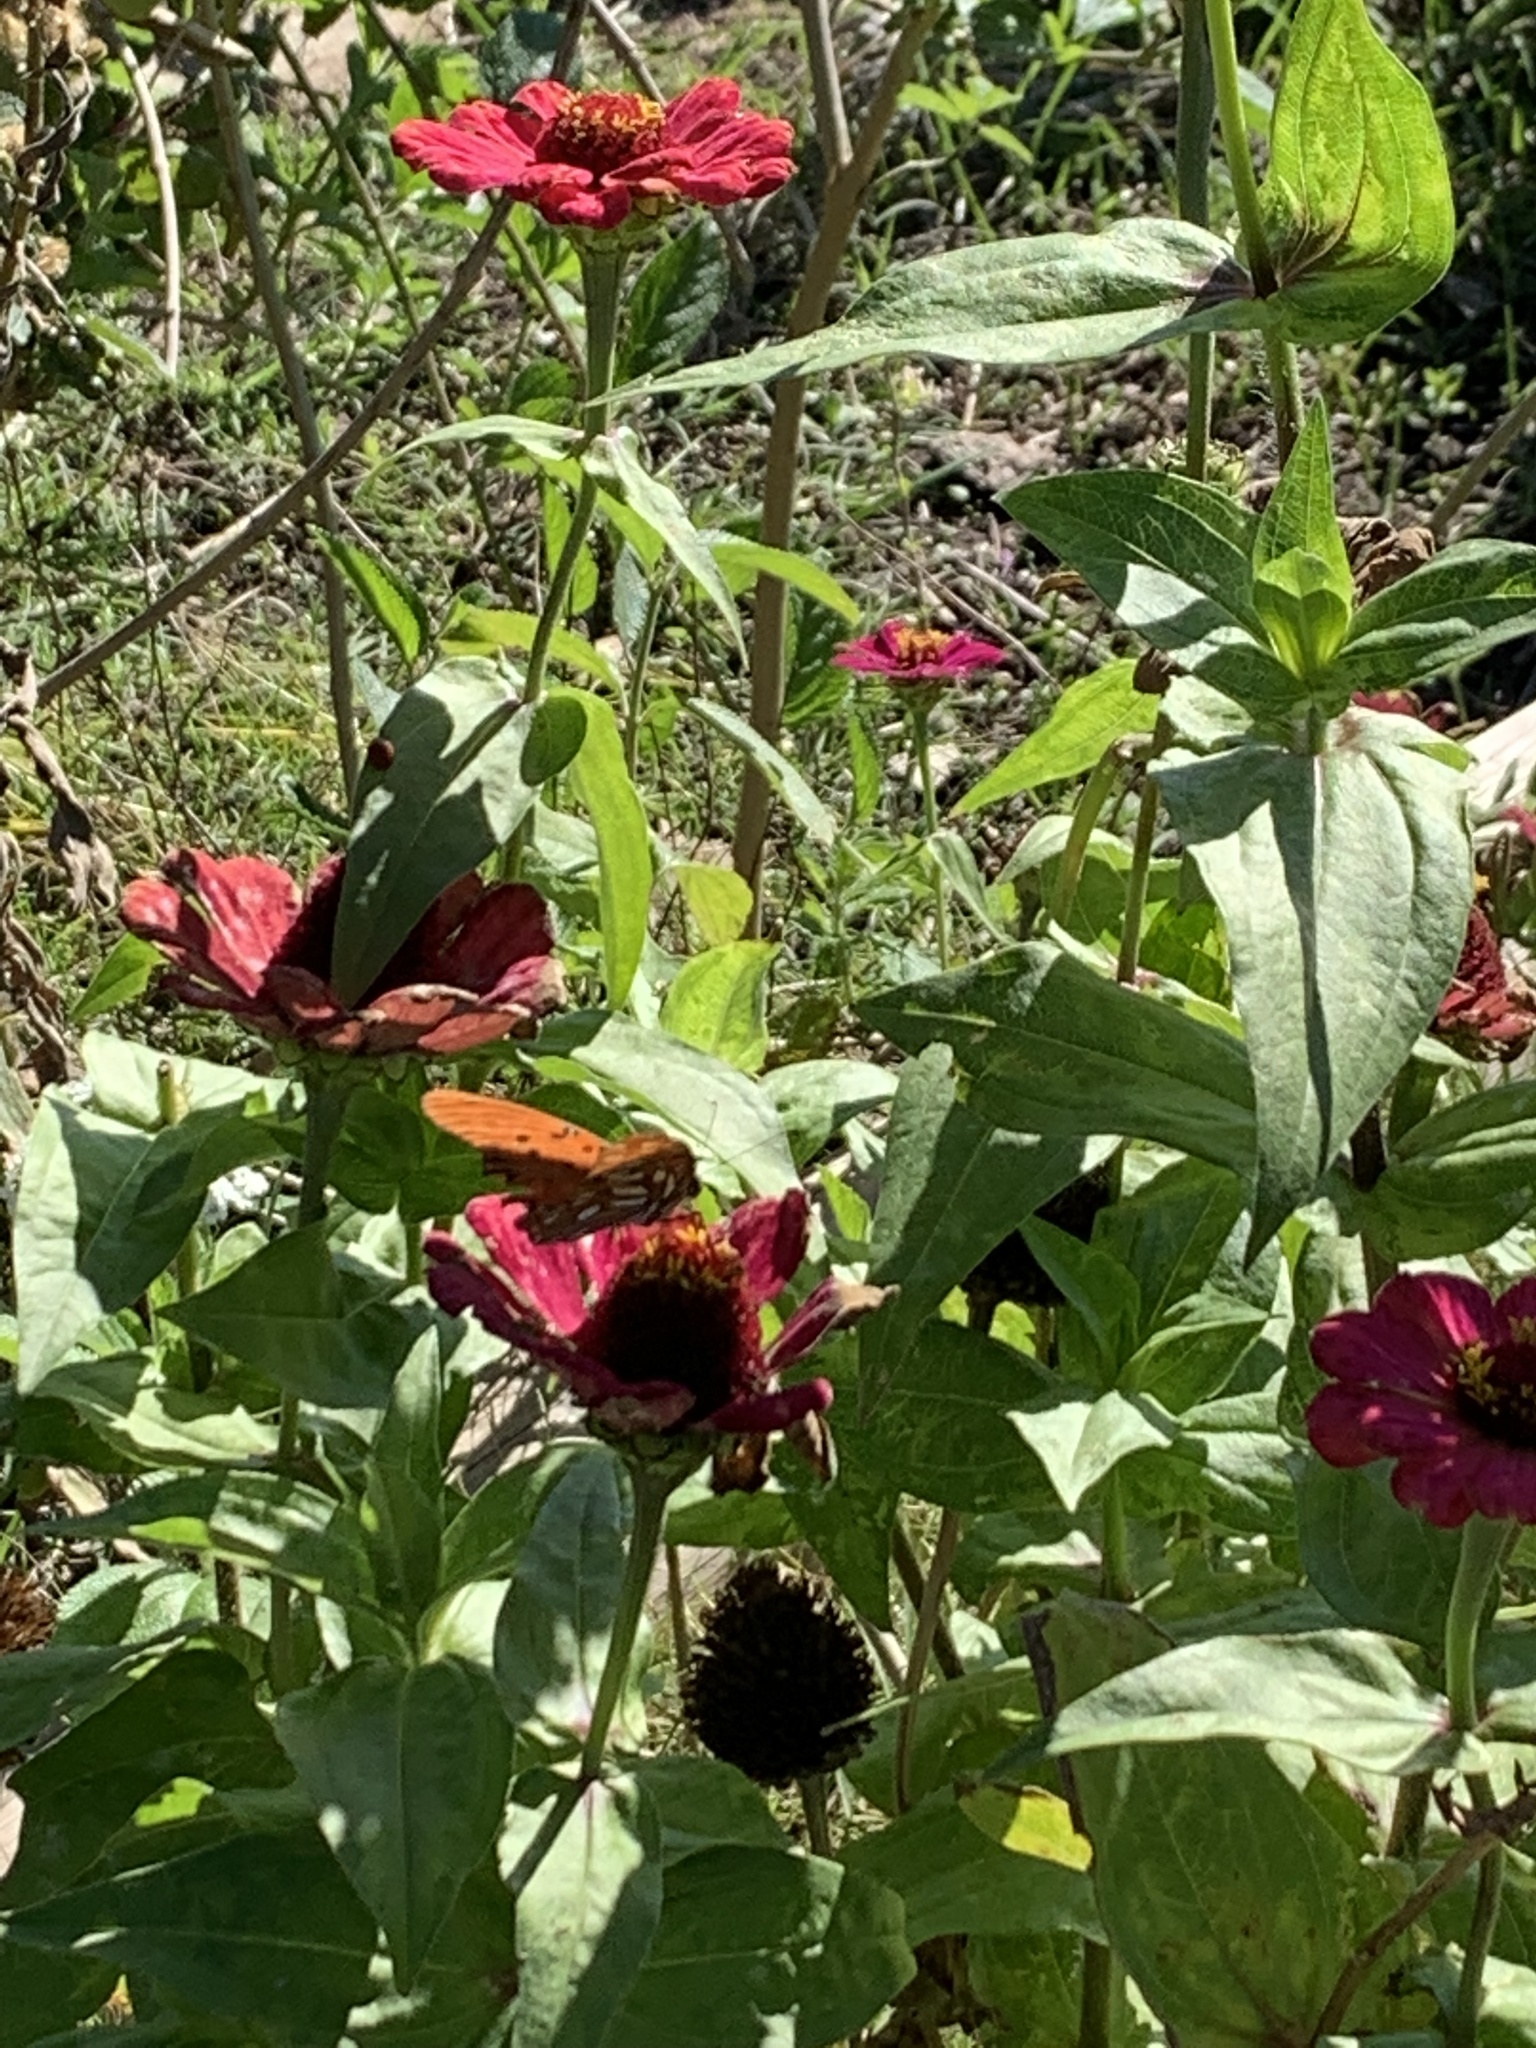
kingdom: Animalia
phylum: Arthropoda
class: Insecta
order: Lepidoptera
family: Nymphalidae
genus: Dione
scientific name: Dione vanillae
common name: Gulf fritillary
